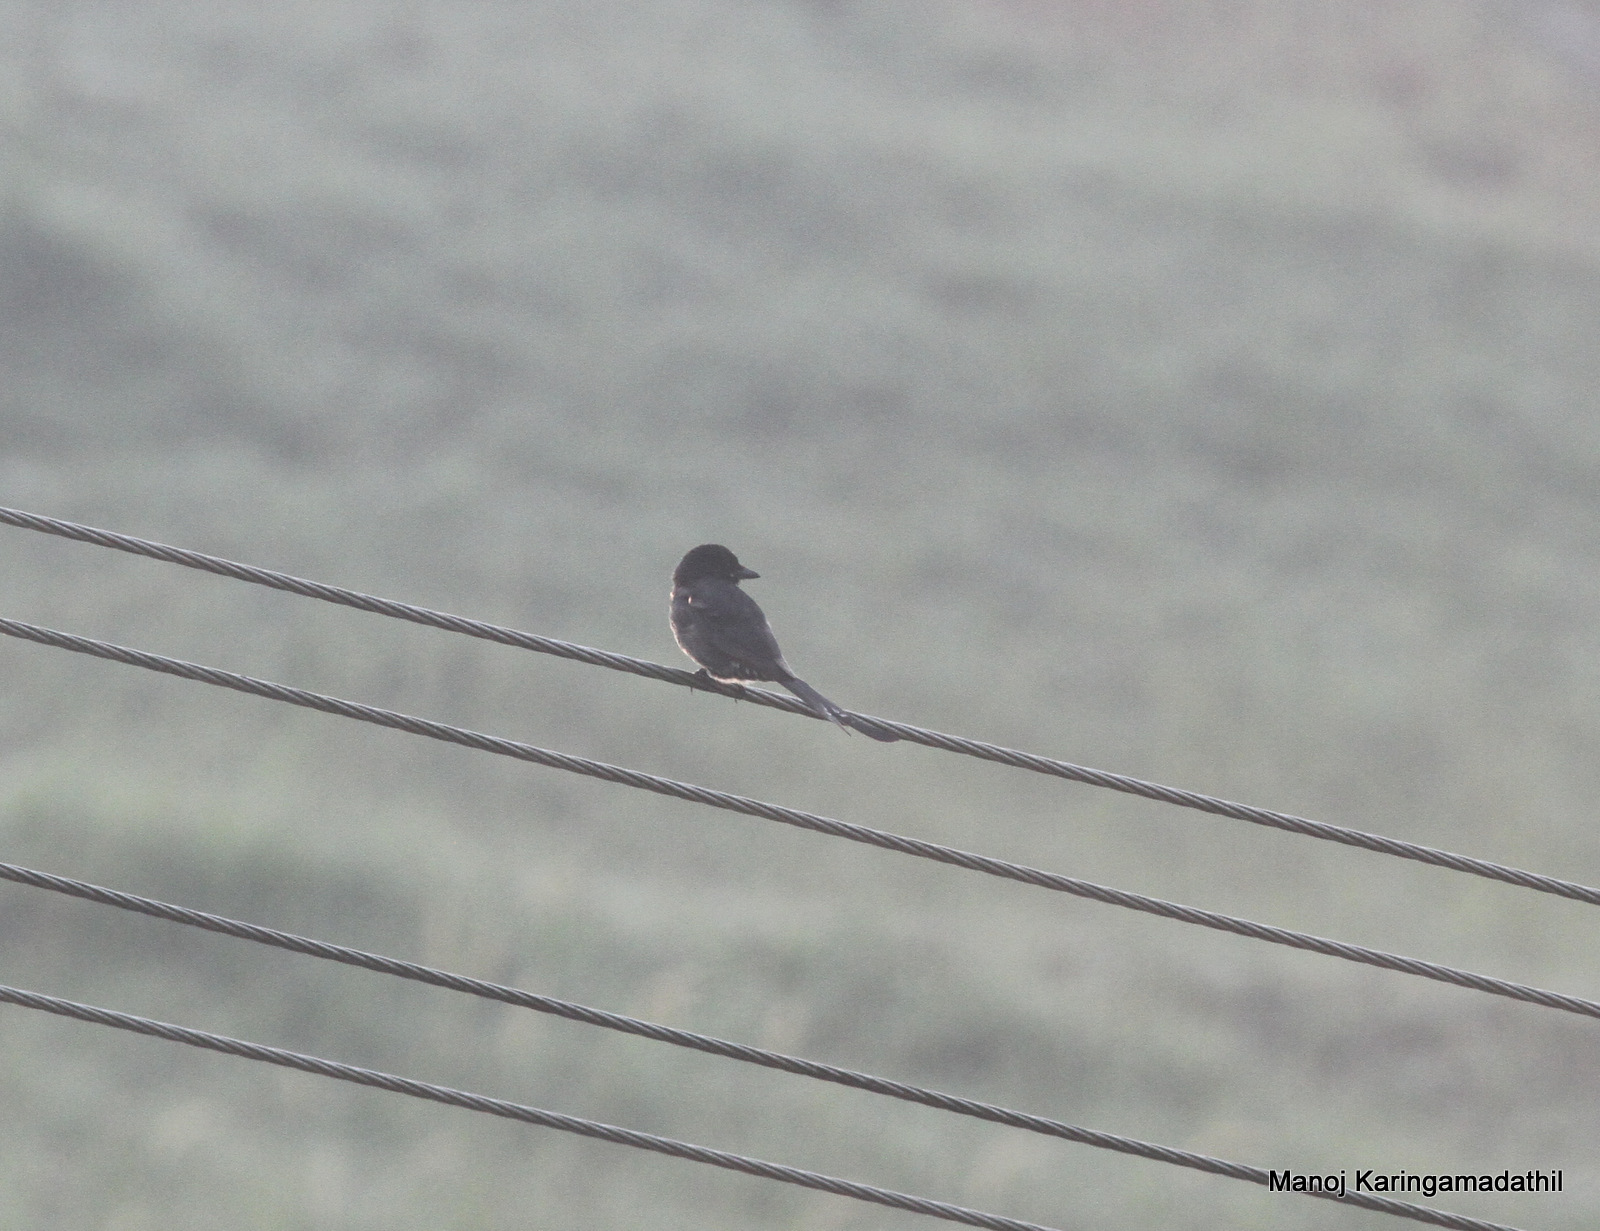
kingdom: Animalia
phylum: Chordata
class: Aves
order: Passeriformes
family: Dicruridae
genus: Dicrurus
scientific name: Dicrurus macrocercus
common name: Black drongo
